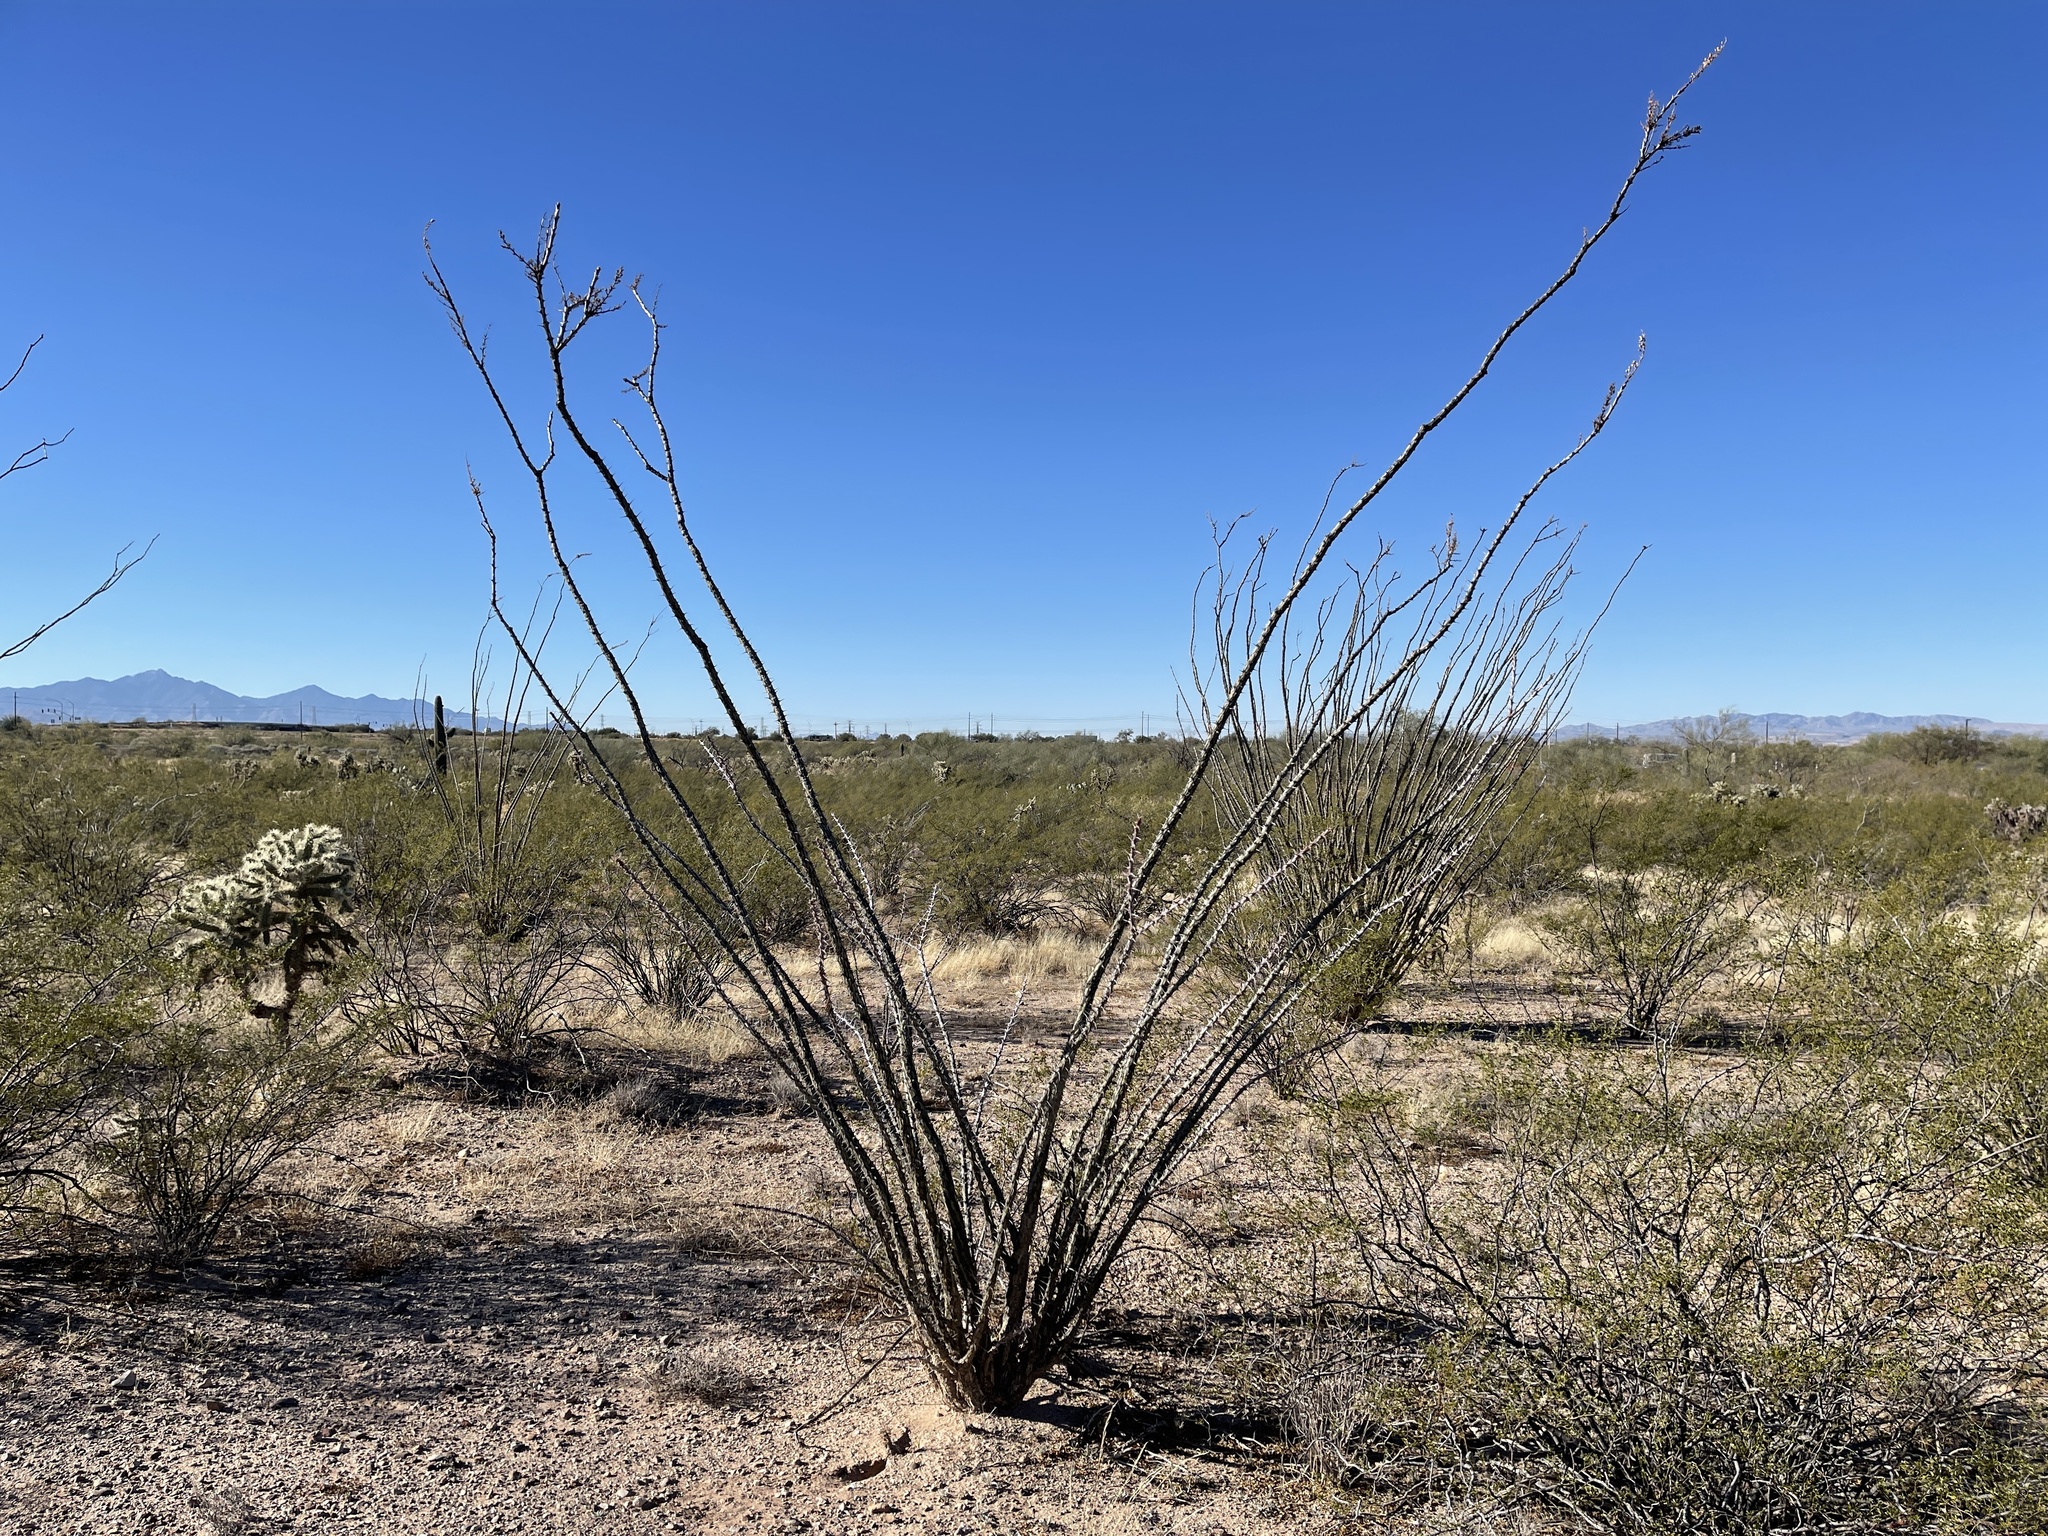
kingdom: Plantae
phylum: Tracheophyta
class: Magnoliopsida
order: Ericales
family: Fouquieriaceae
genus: Fouquieria
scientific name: Fouquieria splendens
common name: Vine-cactus
